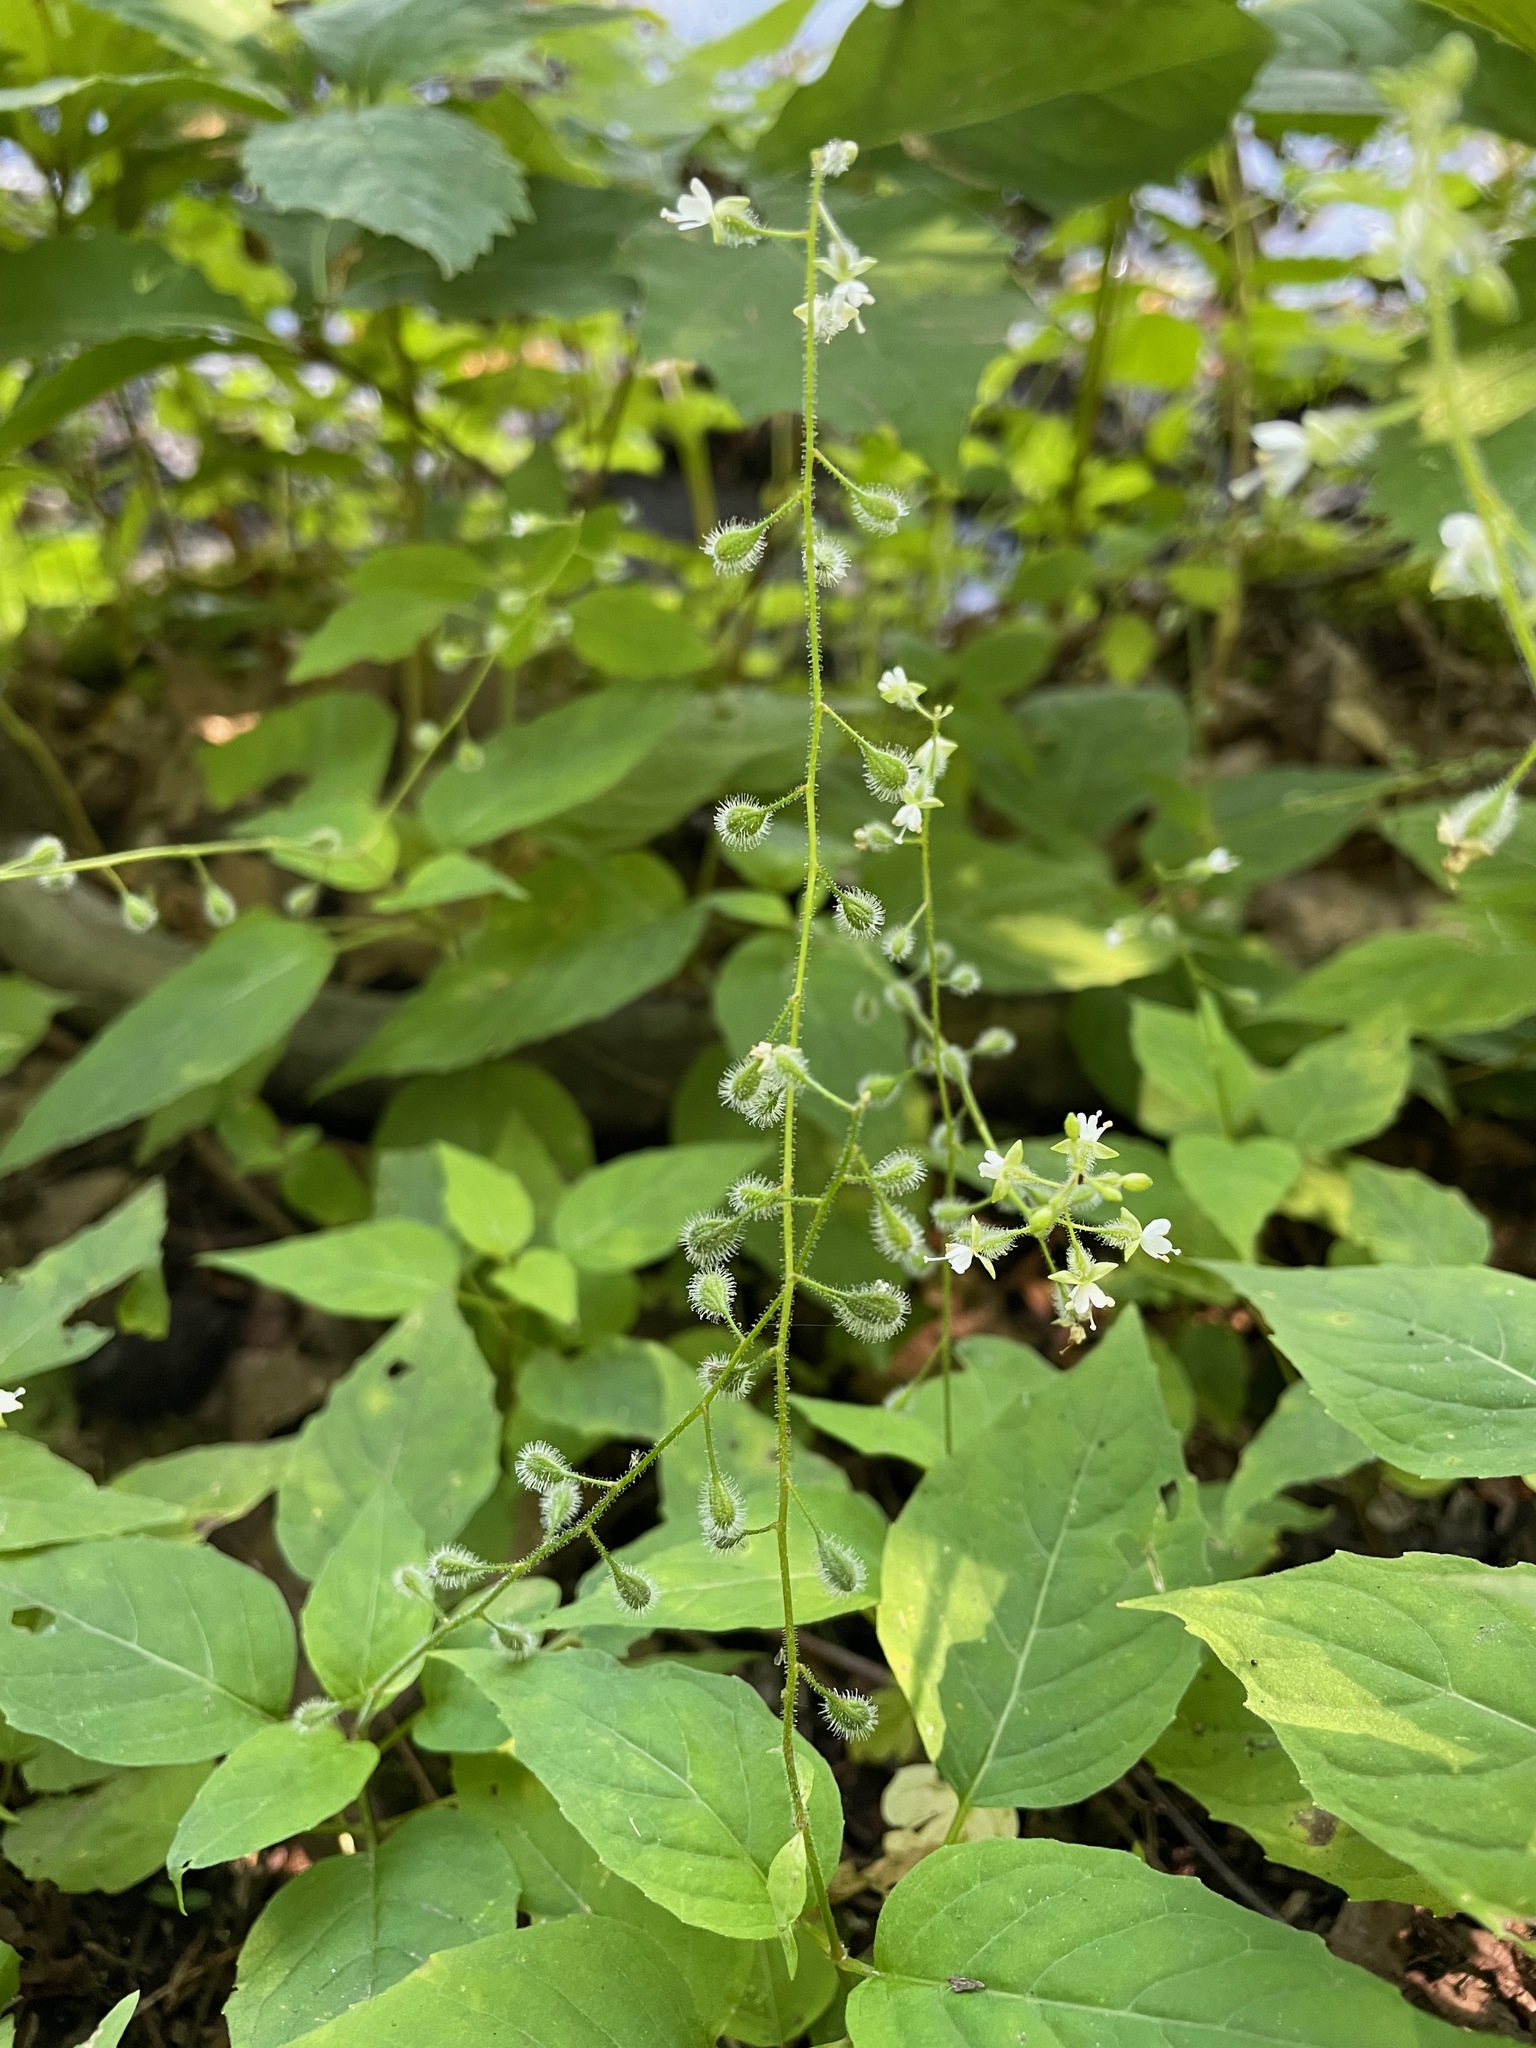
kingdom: Plantae
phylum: Tracheophyta
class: Magnoliopsida
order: Myrtales
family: Onagraceae
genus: Circaea
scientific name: Circaea canadensis
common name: Broad-leaved enchanter's nightshade
